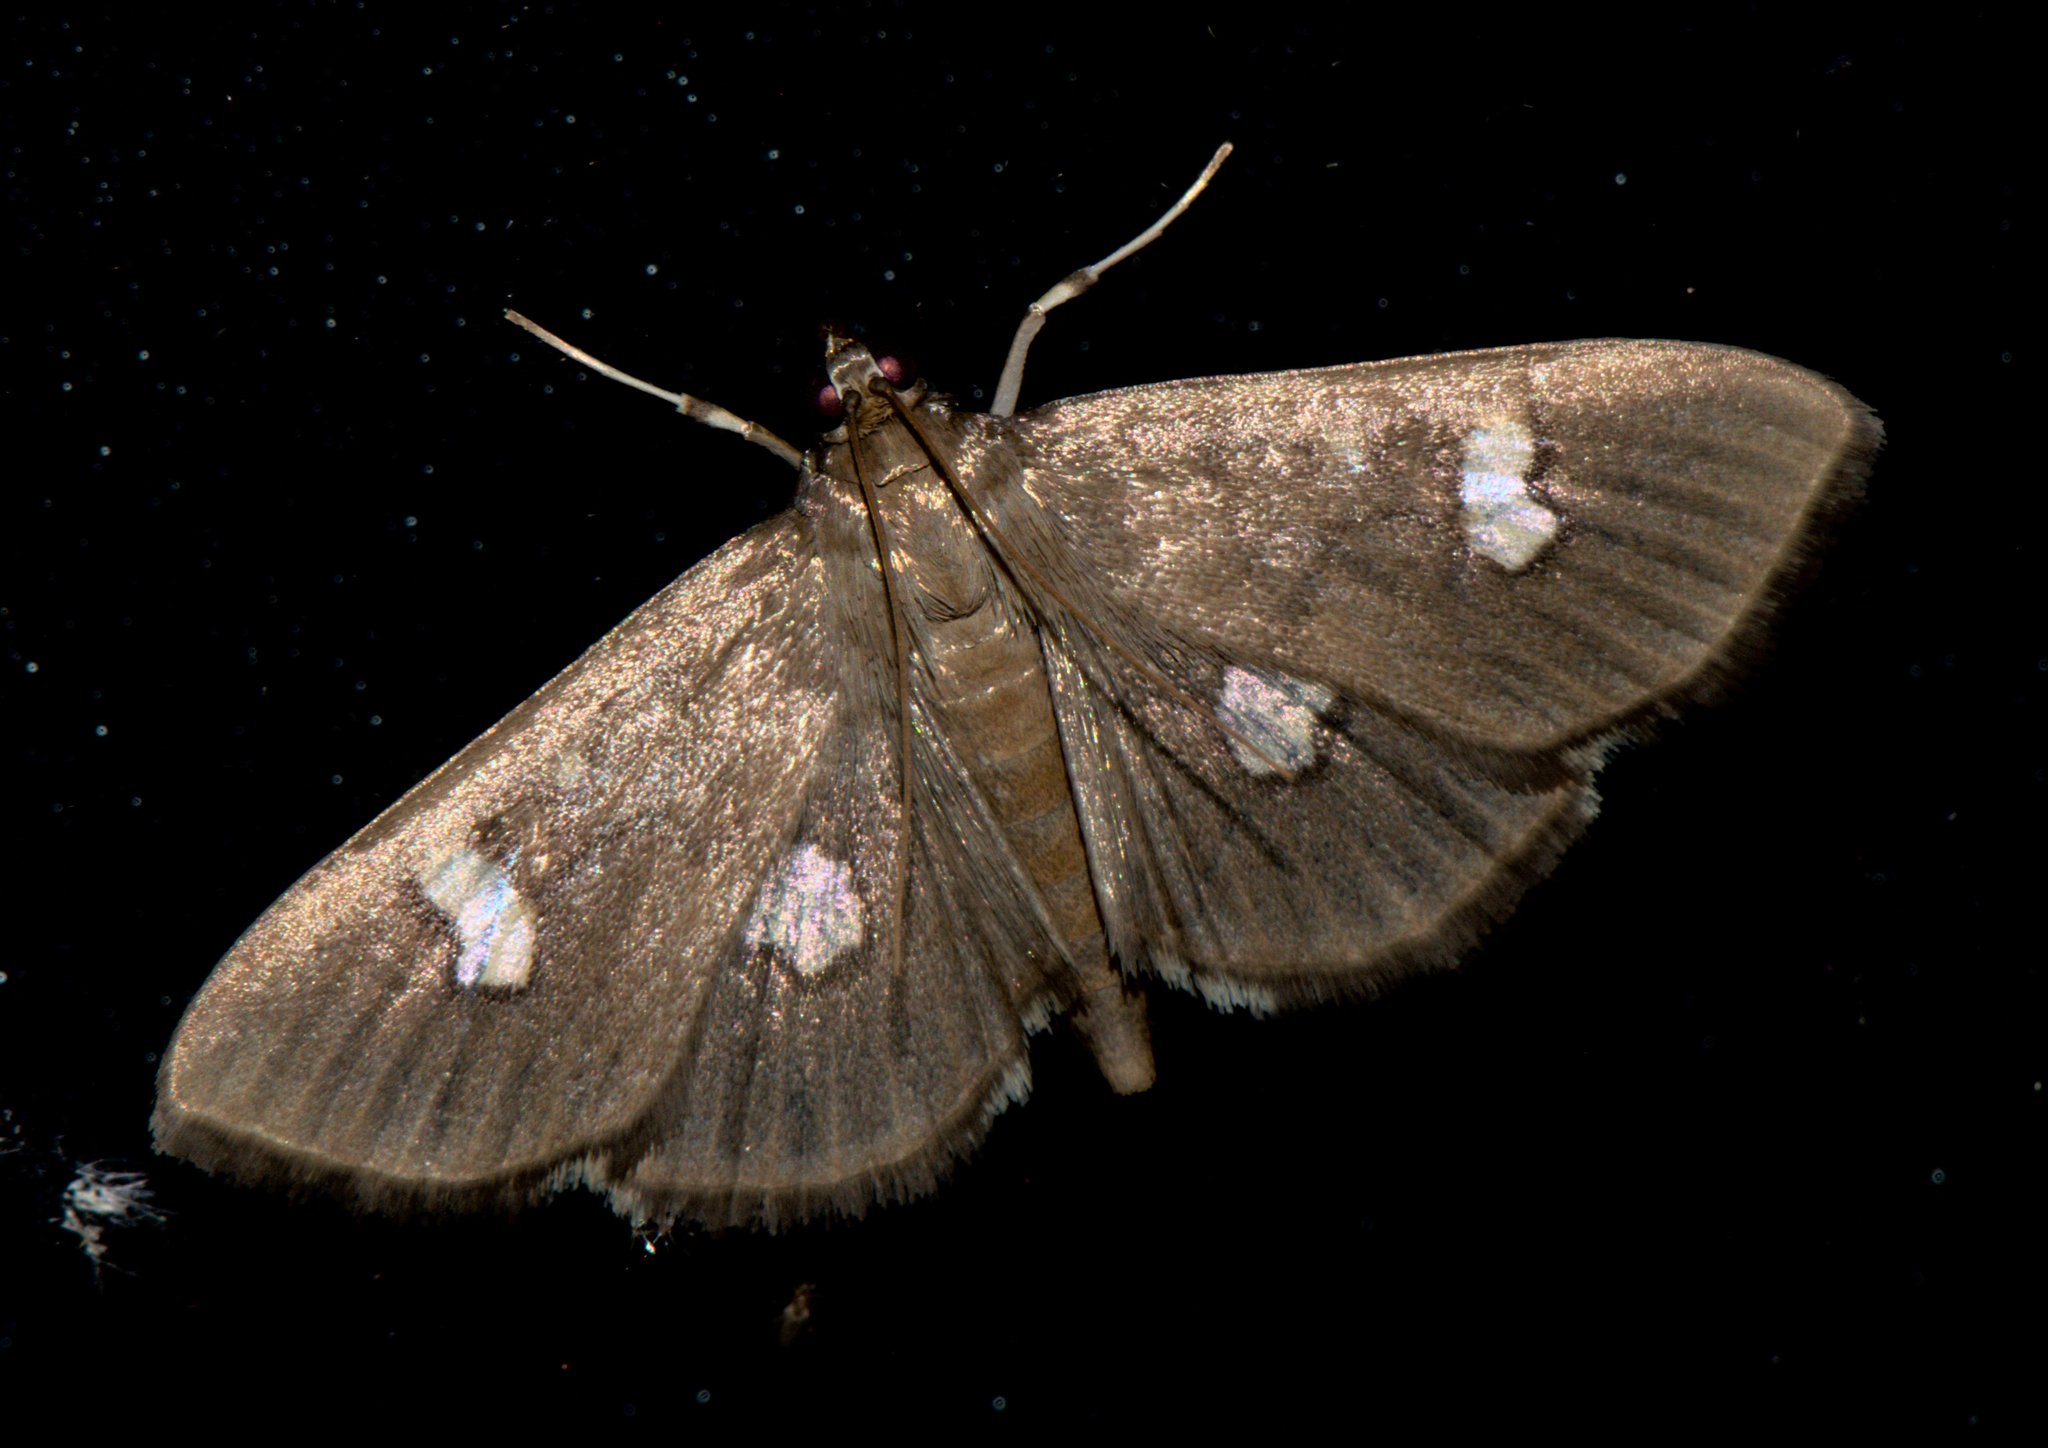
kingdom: Animalia
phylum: Arthropoda
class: Insecta
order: Lepidoptera
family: Crambidae
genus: Nagiella
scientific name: Nagiella quadrimaculalis
